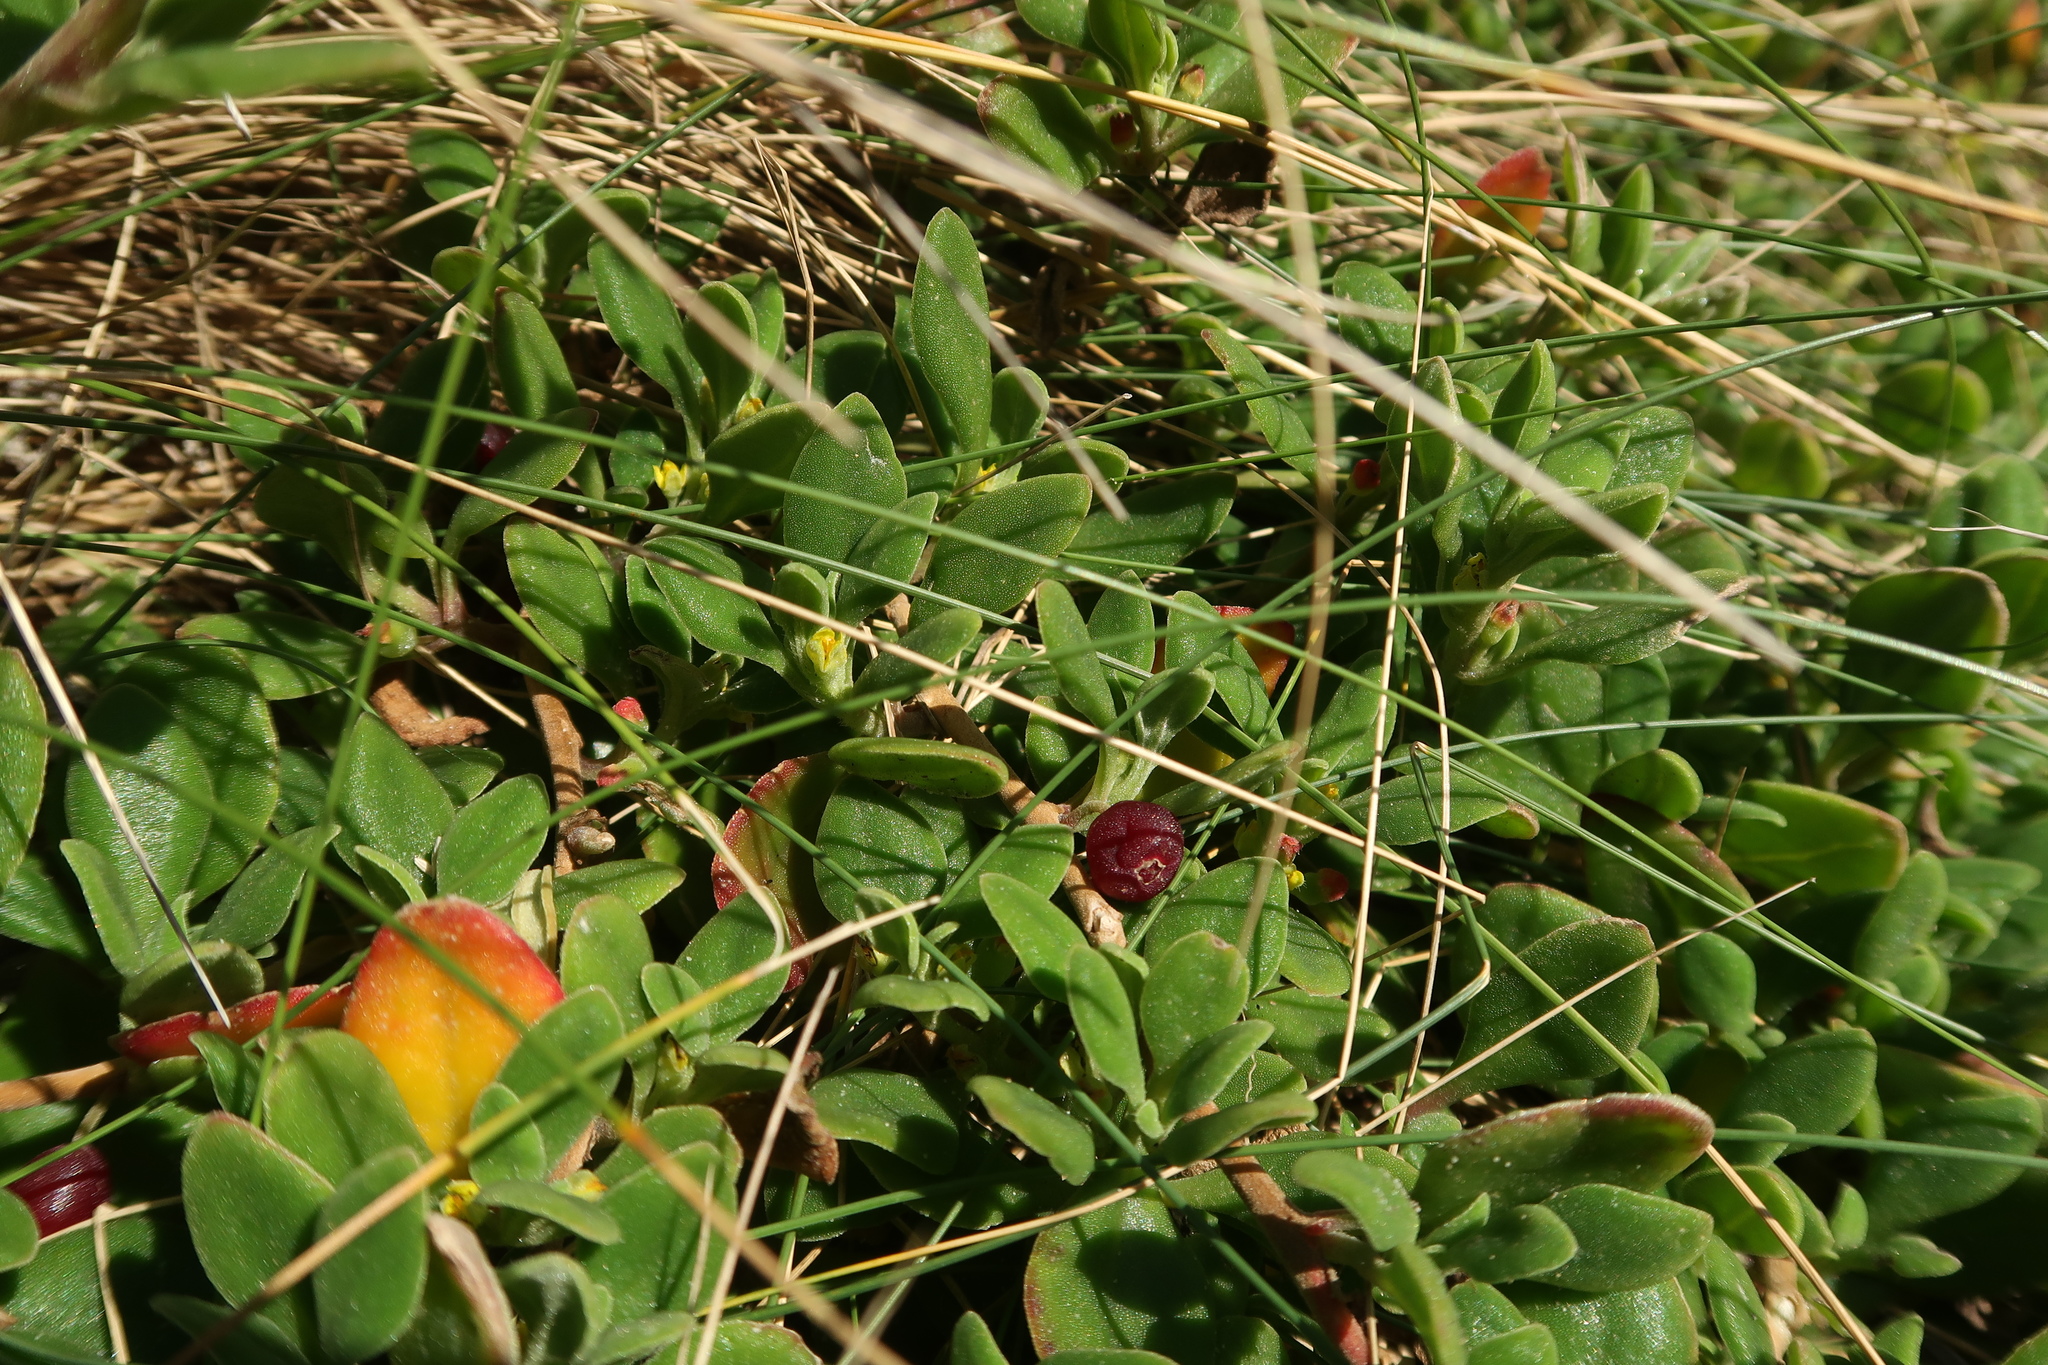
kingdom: Plantae
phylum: Tracheophyta
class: Magnoliopsida
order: Caryophyllales
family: Aizoaceae
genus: Tetragonia
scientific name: Tetragonia implexicoma
